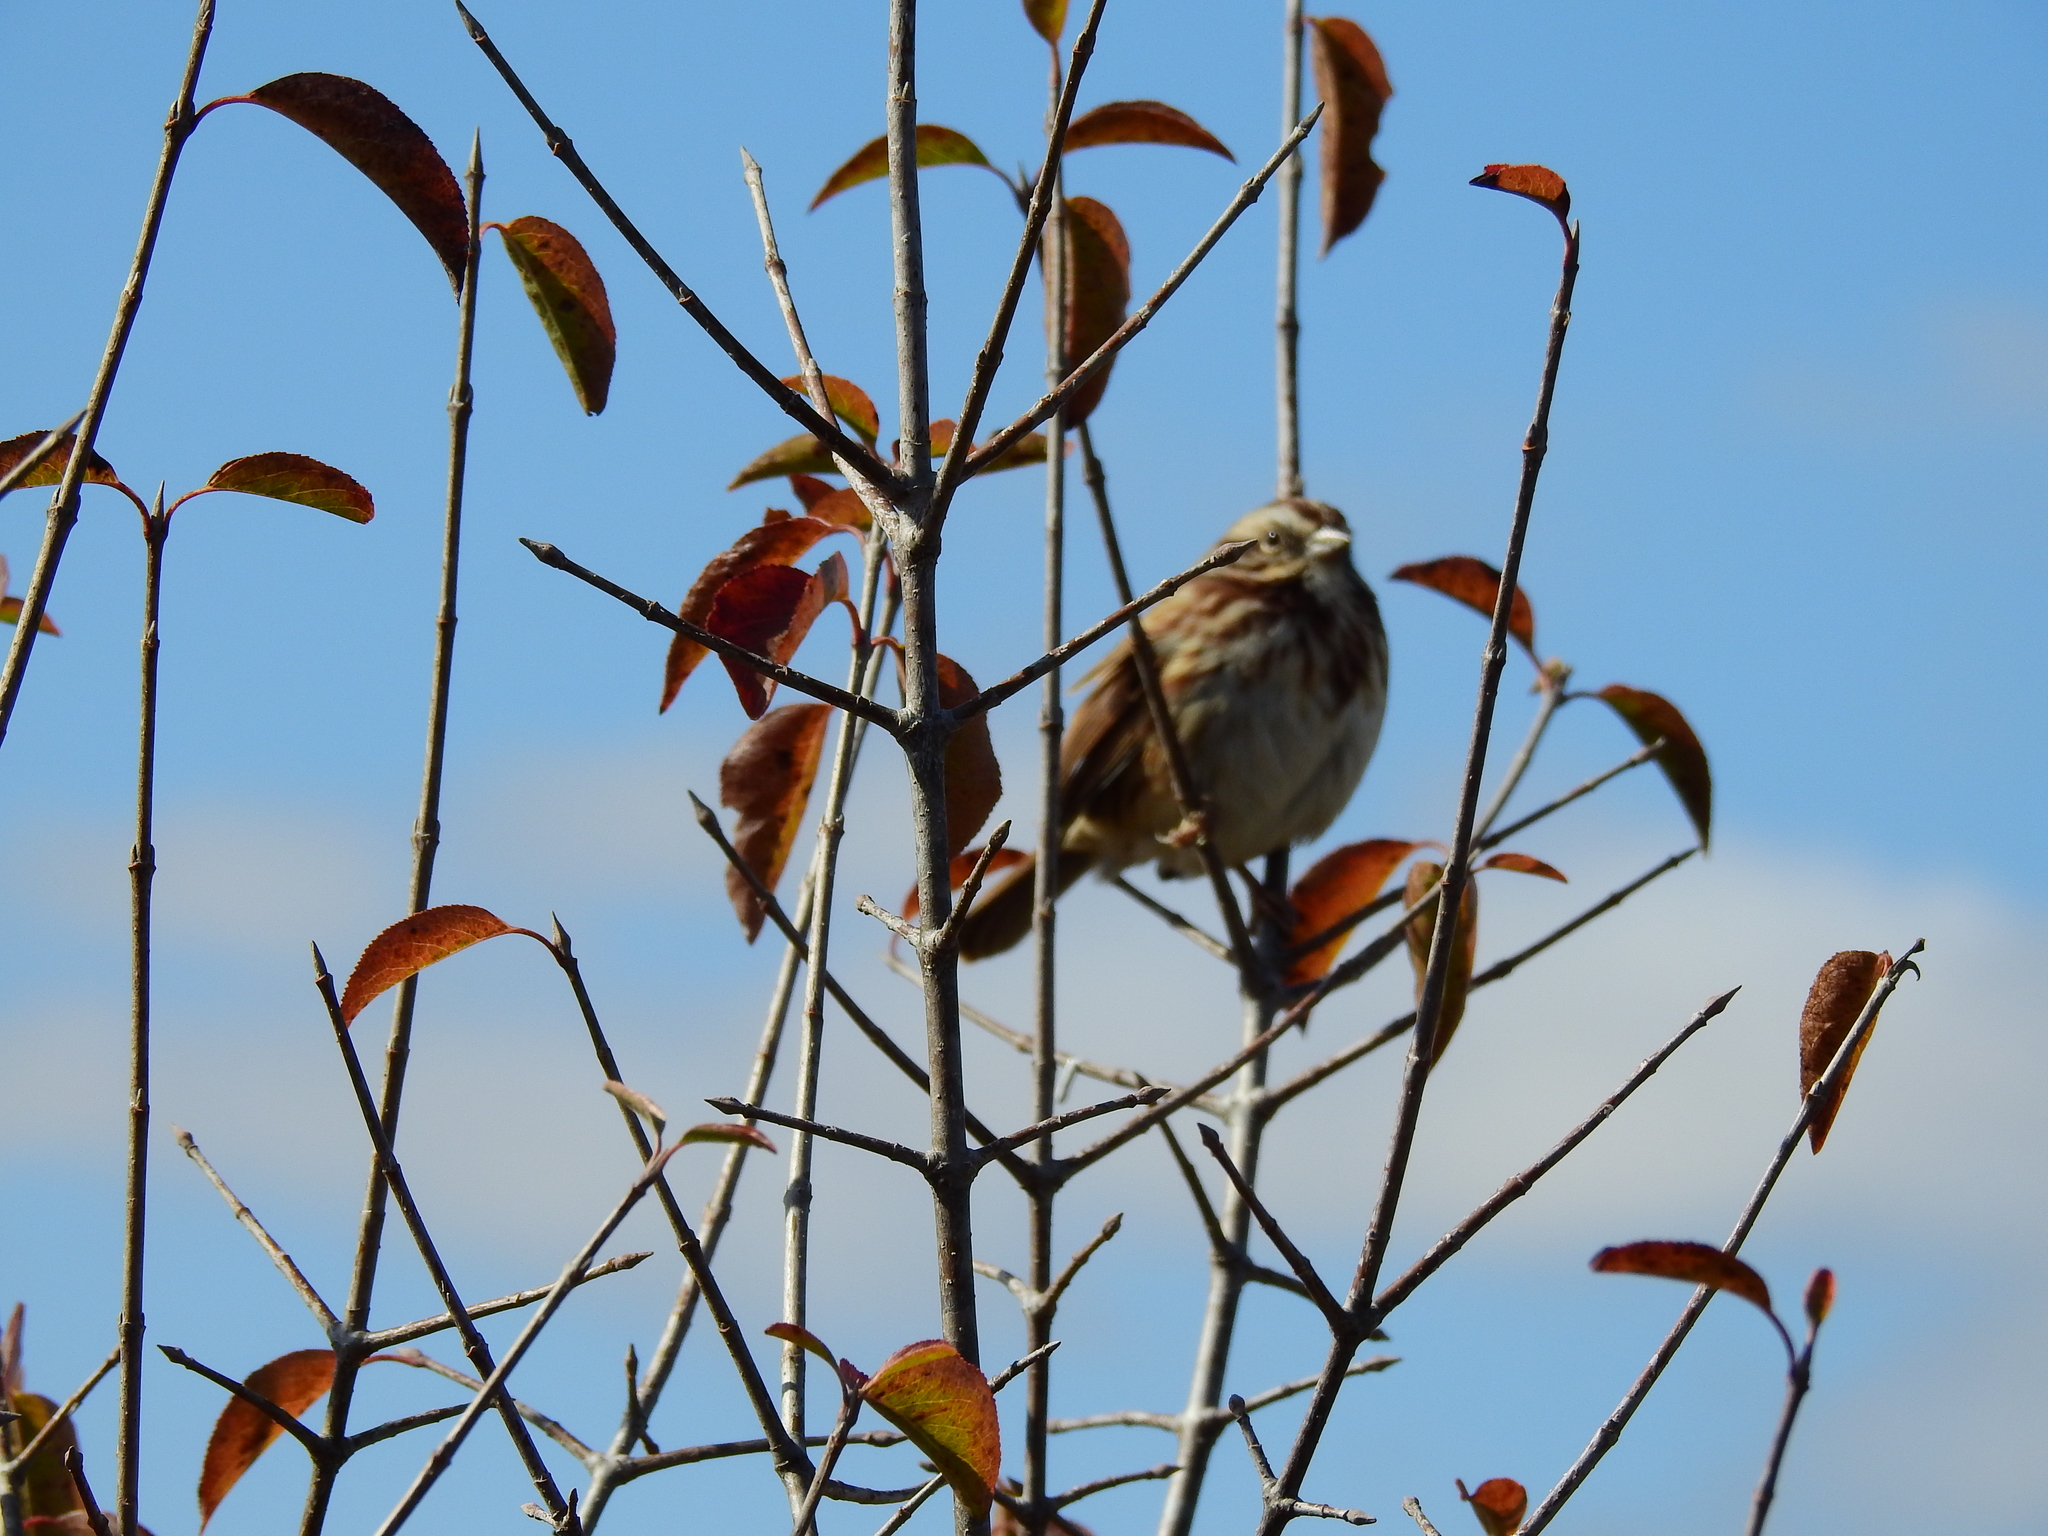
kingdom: Animalia
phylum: Chordata
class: Aves
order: Passeriformes
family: Passerellidae
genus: Melospiza
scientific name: Melospiza melodia
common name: Song sparrow
